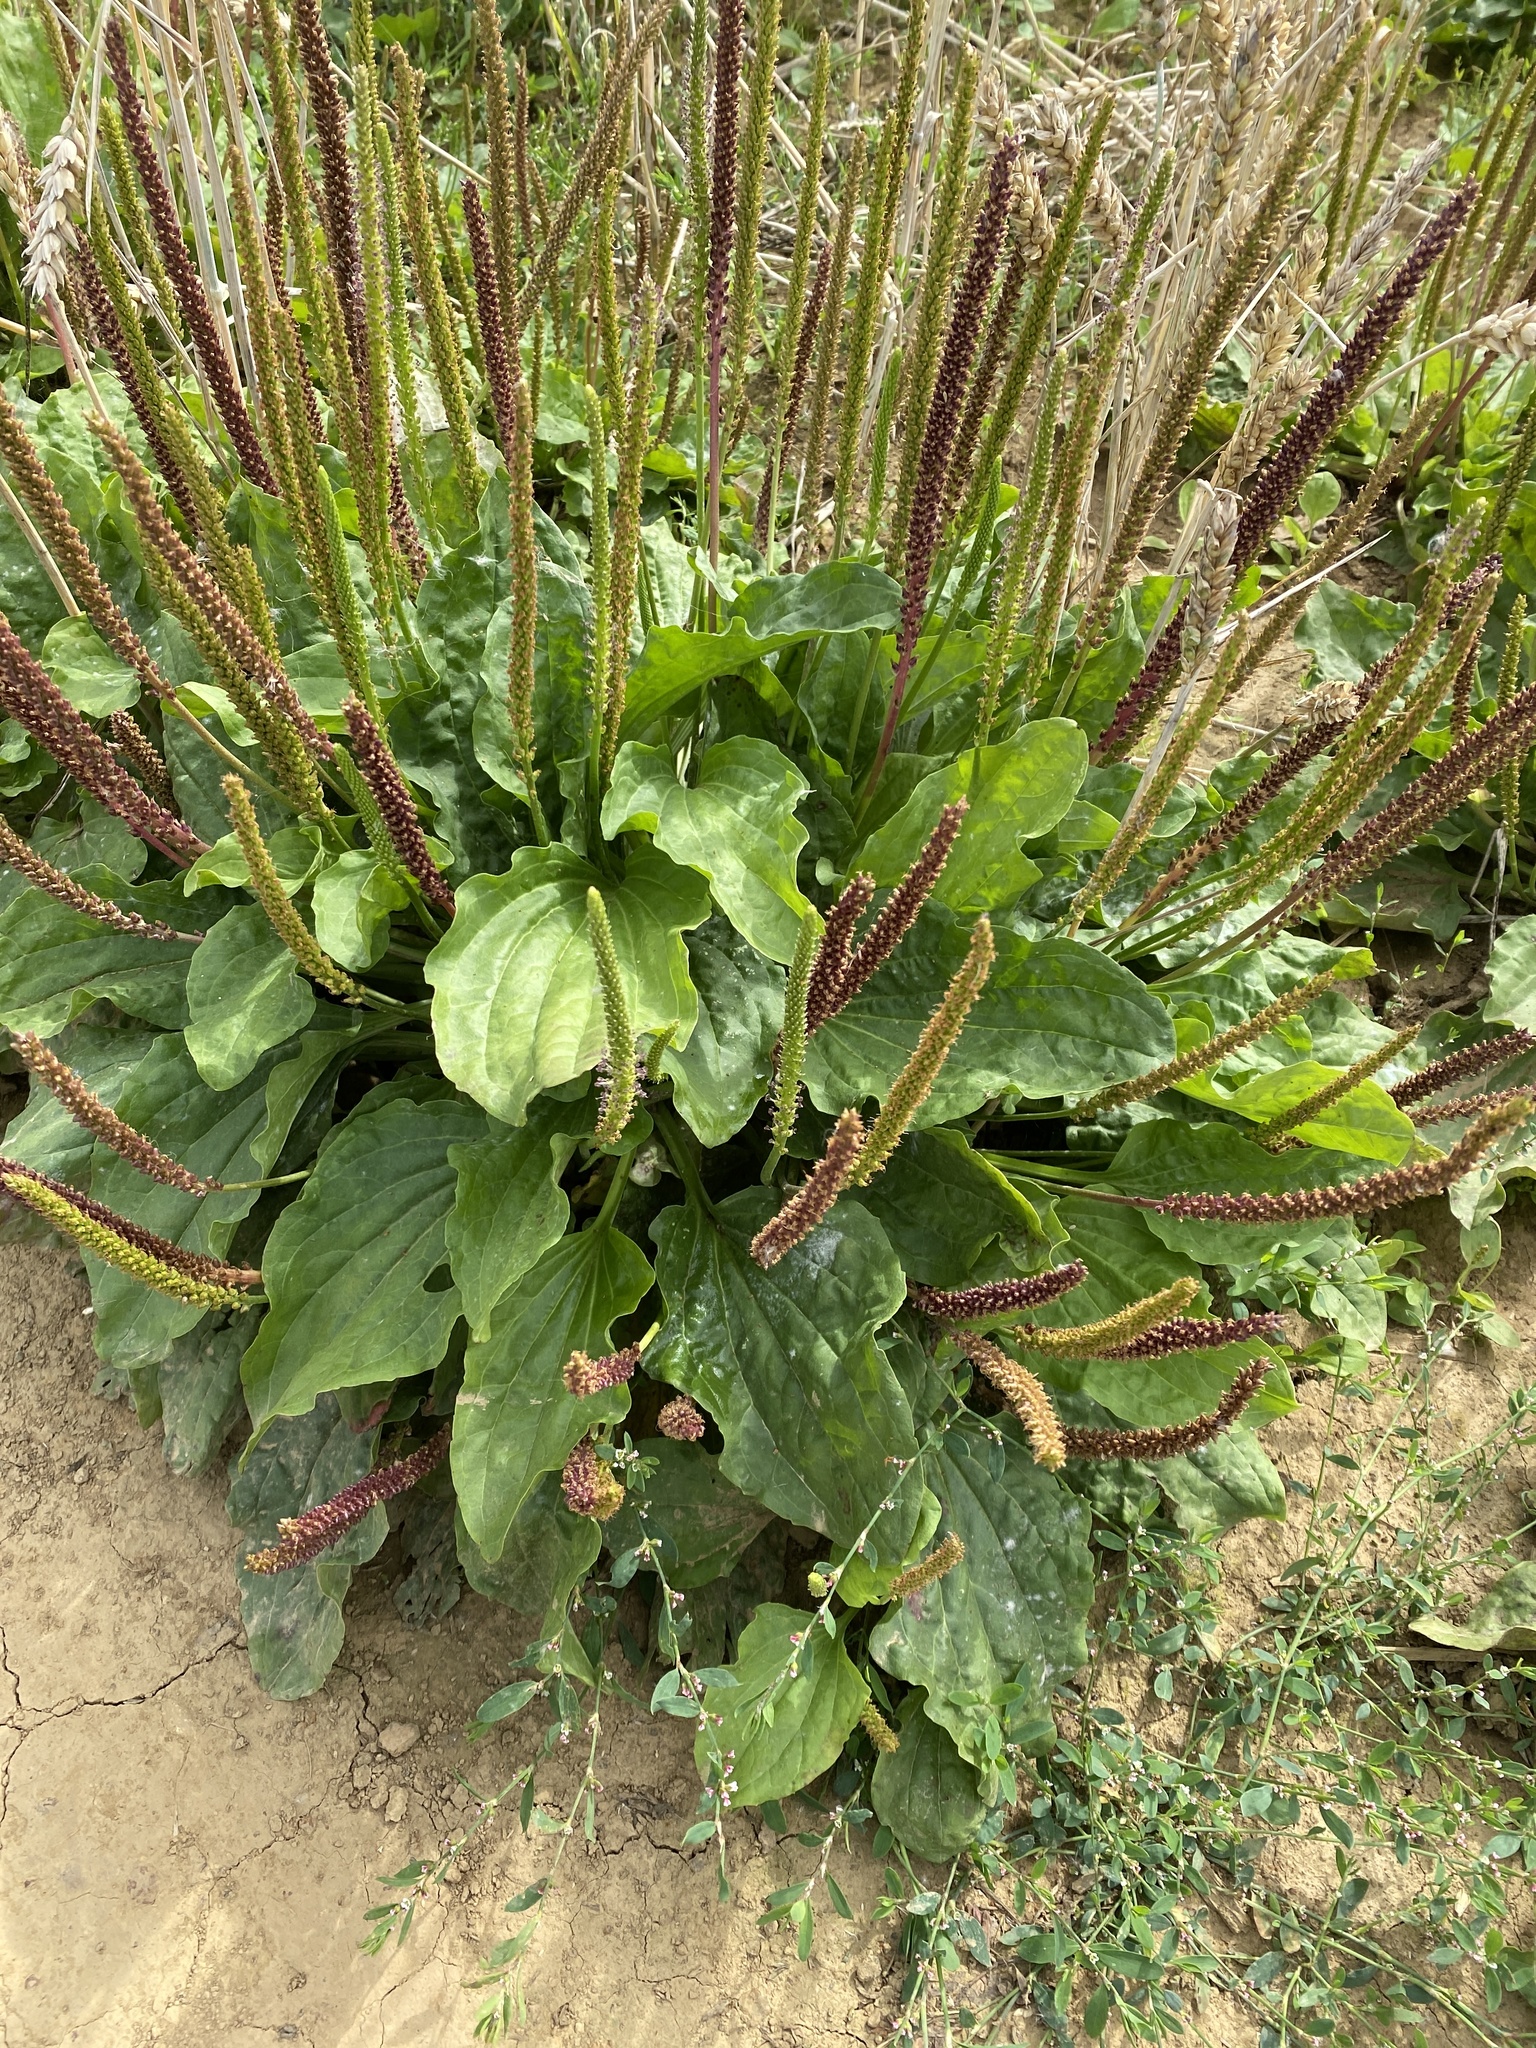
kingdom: Plantae
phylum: Tracheophyta
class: Magnoliopsida
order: Lamiales
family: Plantaginaceae
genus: Plantago
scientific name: Plantago major
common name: Common plantain
